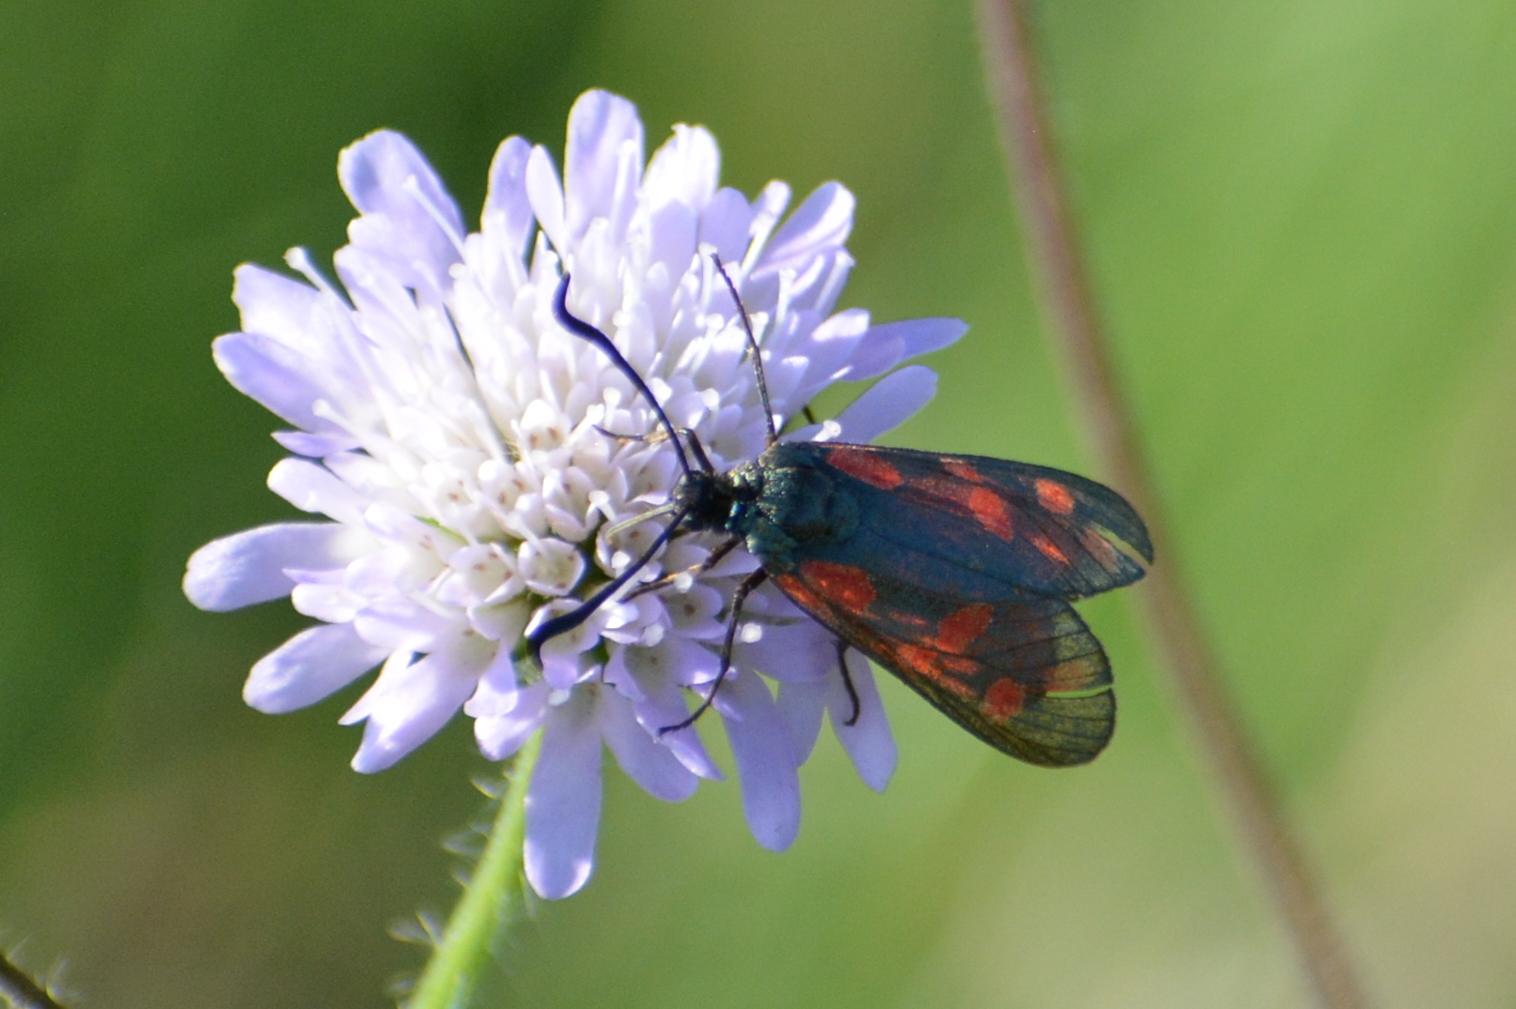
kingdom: Animalia
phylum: Arthropoda
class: Insecta
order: Lepidoptera
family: Zygaenidae
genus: Zygaena
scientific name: Zygaena filipendulae
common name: Six-spot burnet
